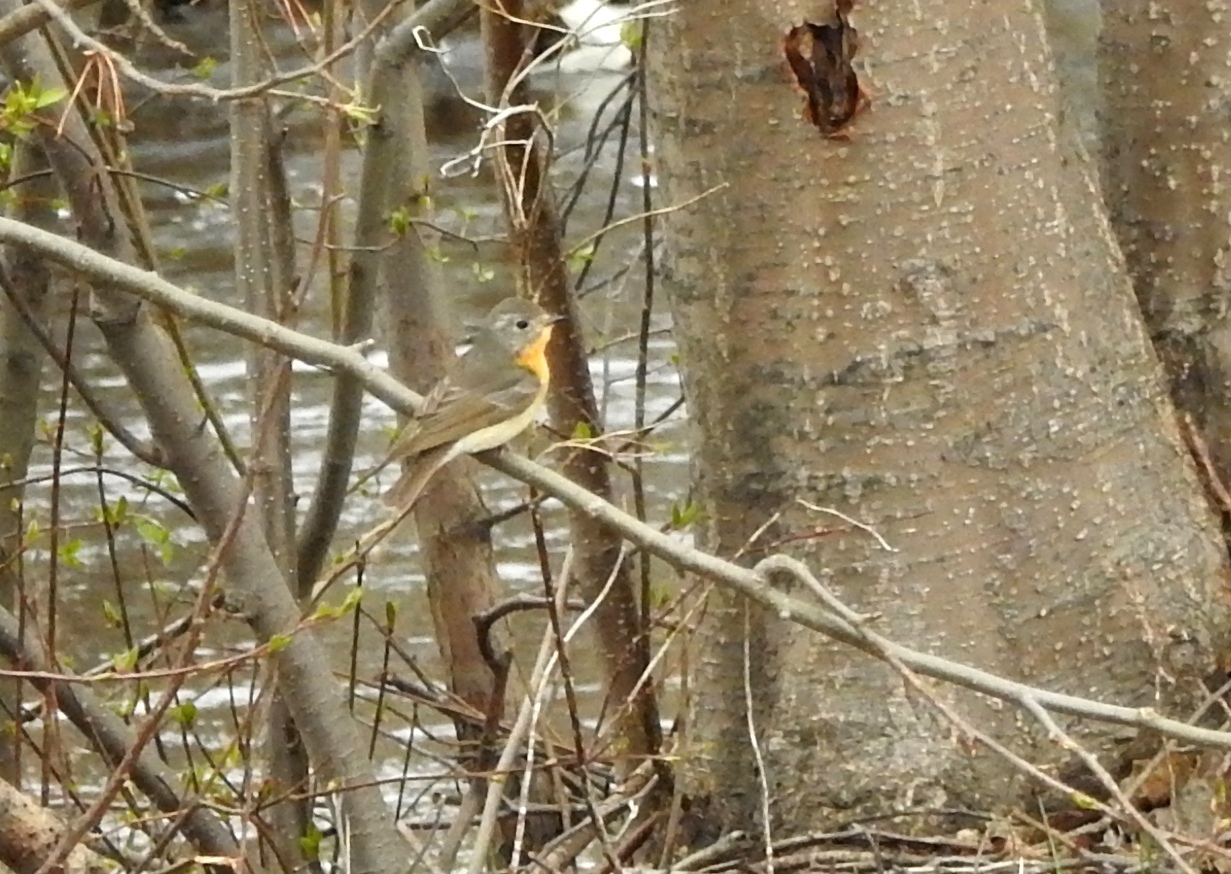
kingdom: Animalia
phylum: Chordata
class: Aves
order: Passeriformes
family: Muscicapidae
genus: Ficedula
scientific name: Ficedula mugimaki
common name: Mugimaki flycatcher
